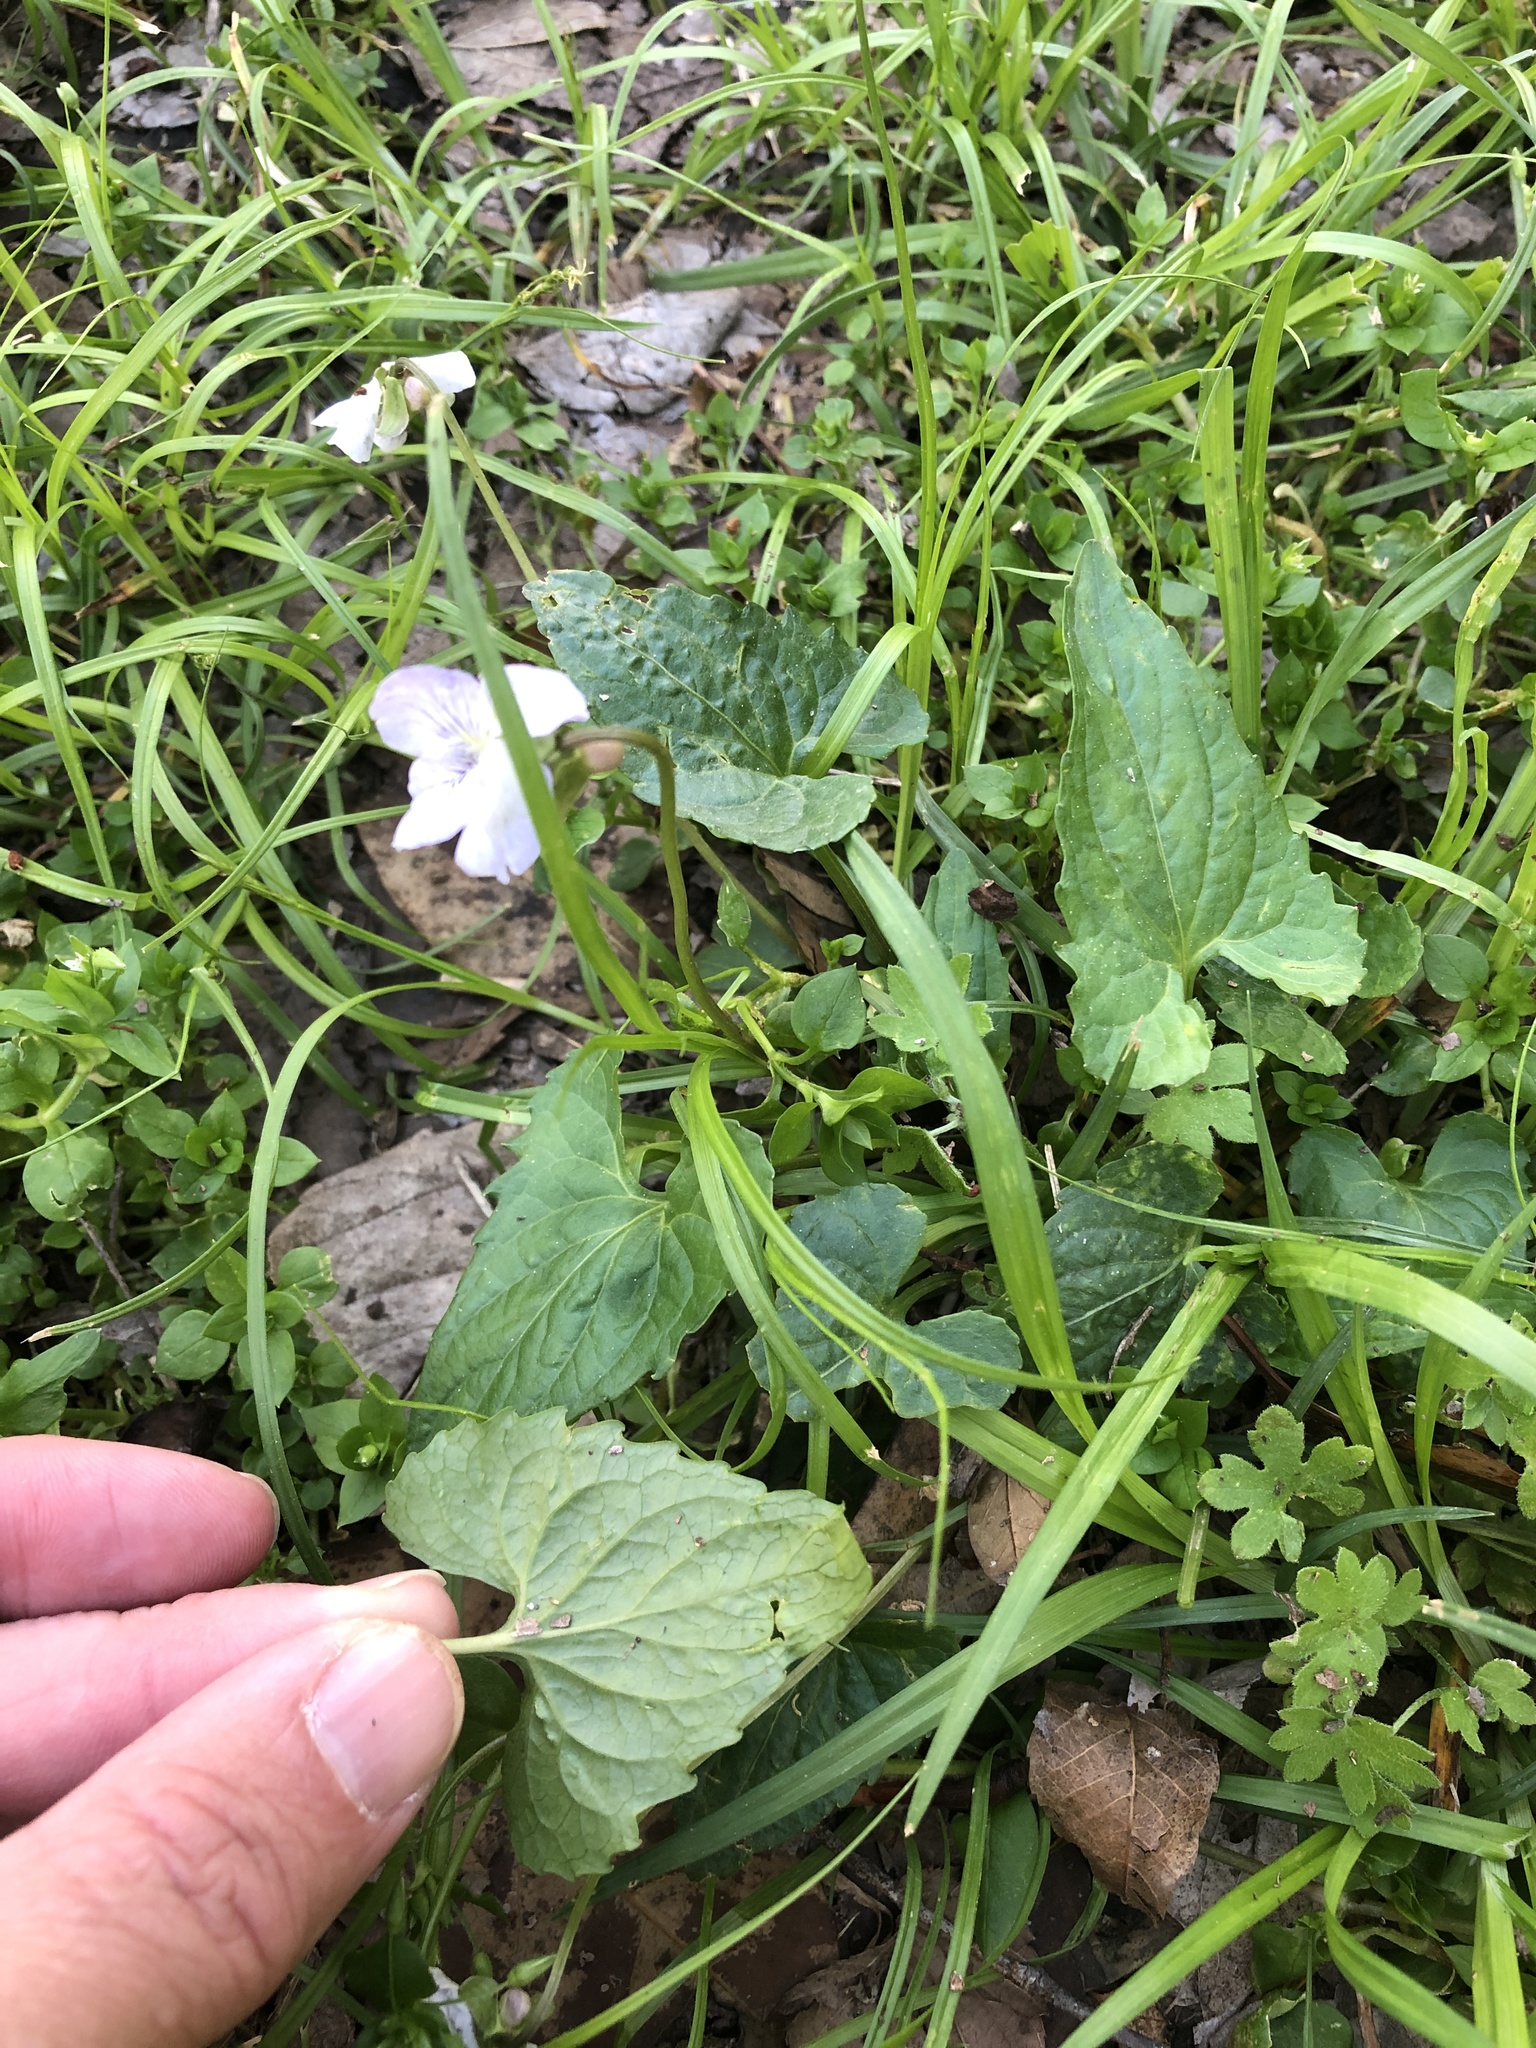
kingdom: Plantae
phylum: Tracheophyta
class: Magnoliopsida
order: Malpighiales
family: Violaceae
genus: Viola
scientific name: Viola missouriensis
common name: Missouri violet
